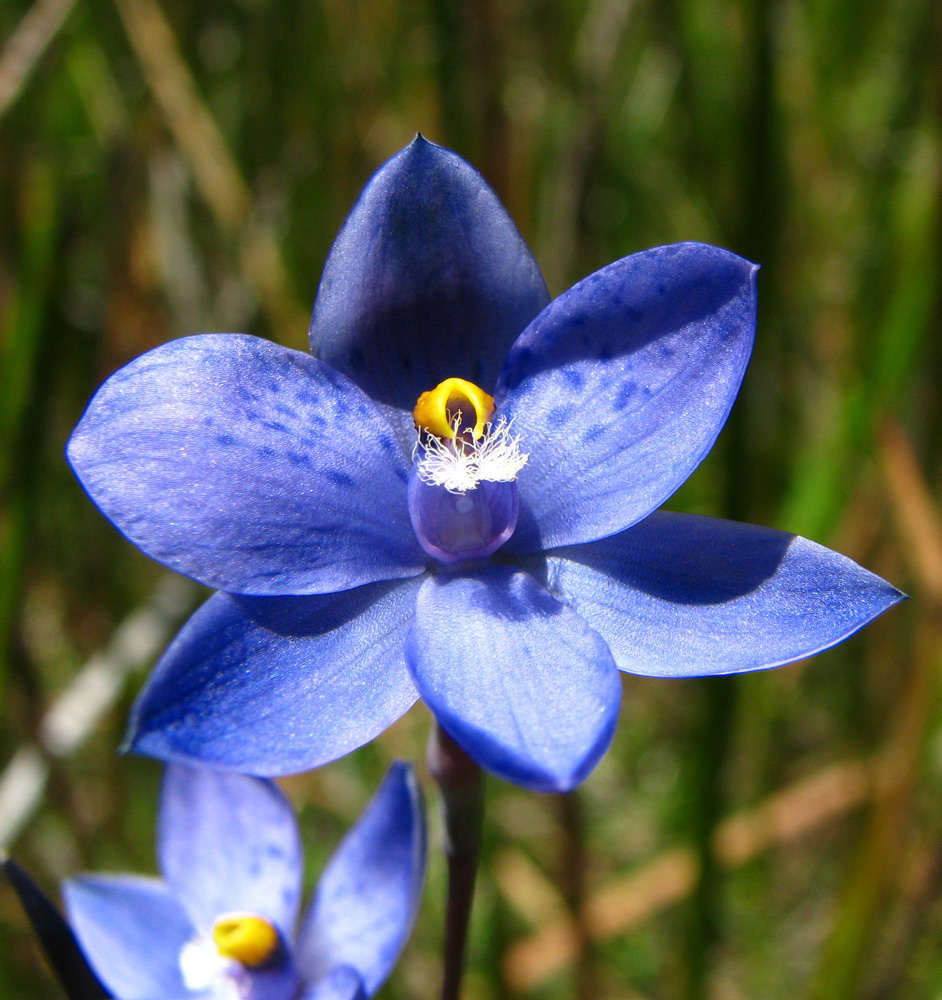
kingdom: Plantae
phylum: Tracheophyta
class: Liliopsida
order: Asparagales
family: Orchidaceae
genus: Thelymitra
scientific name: Thelymitra
